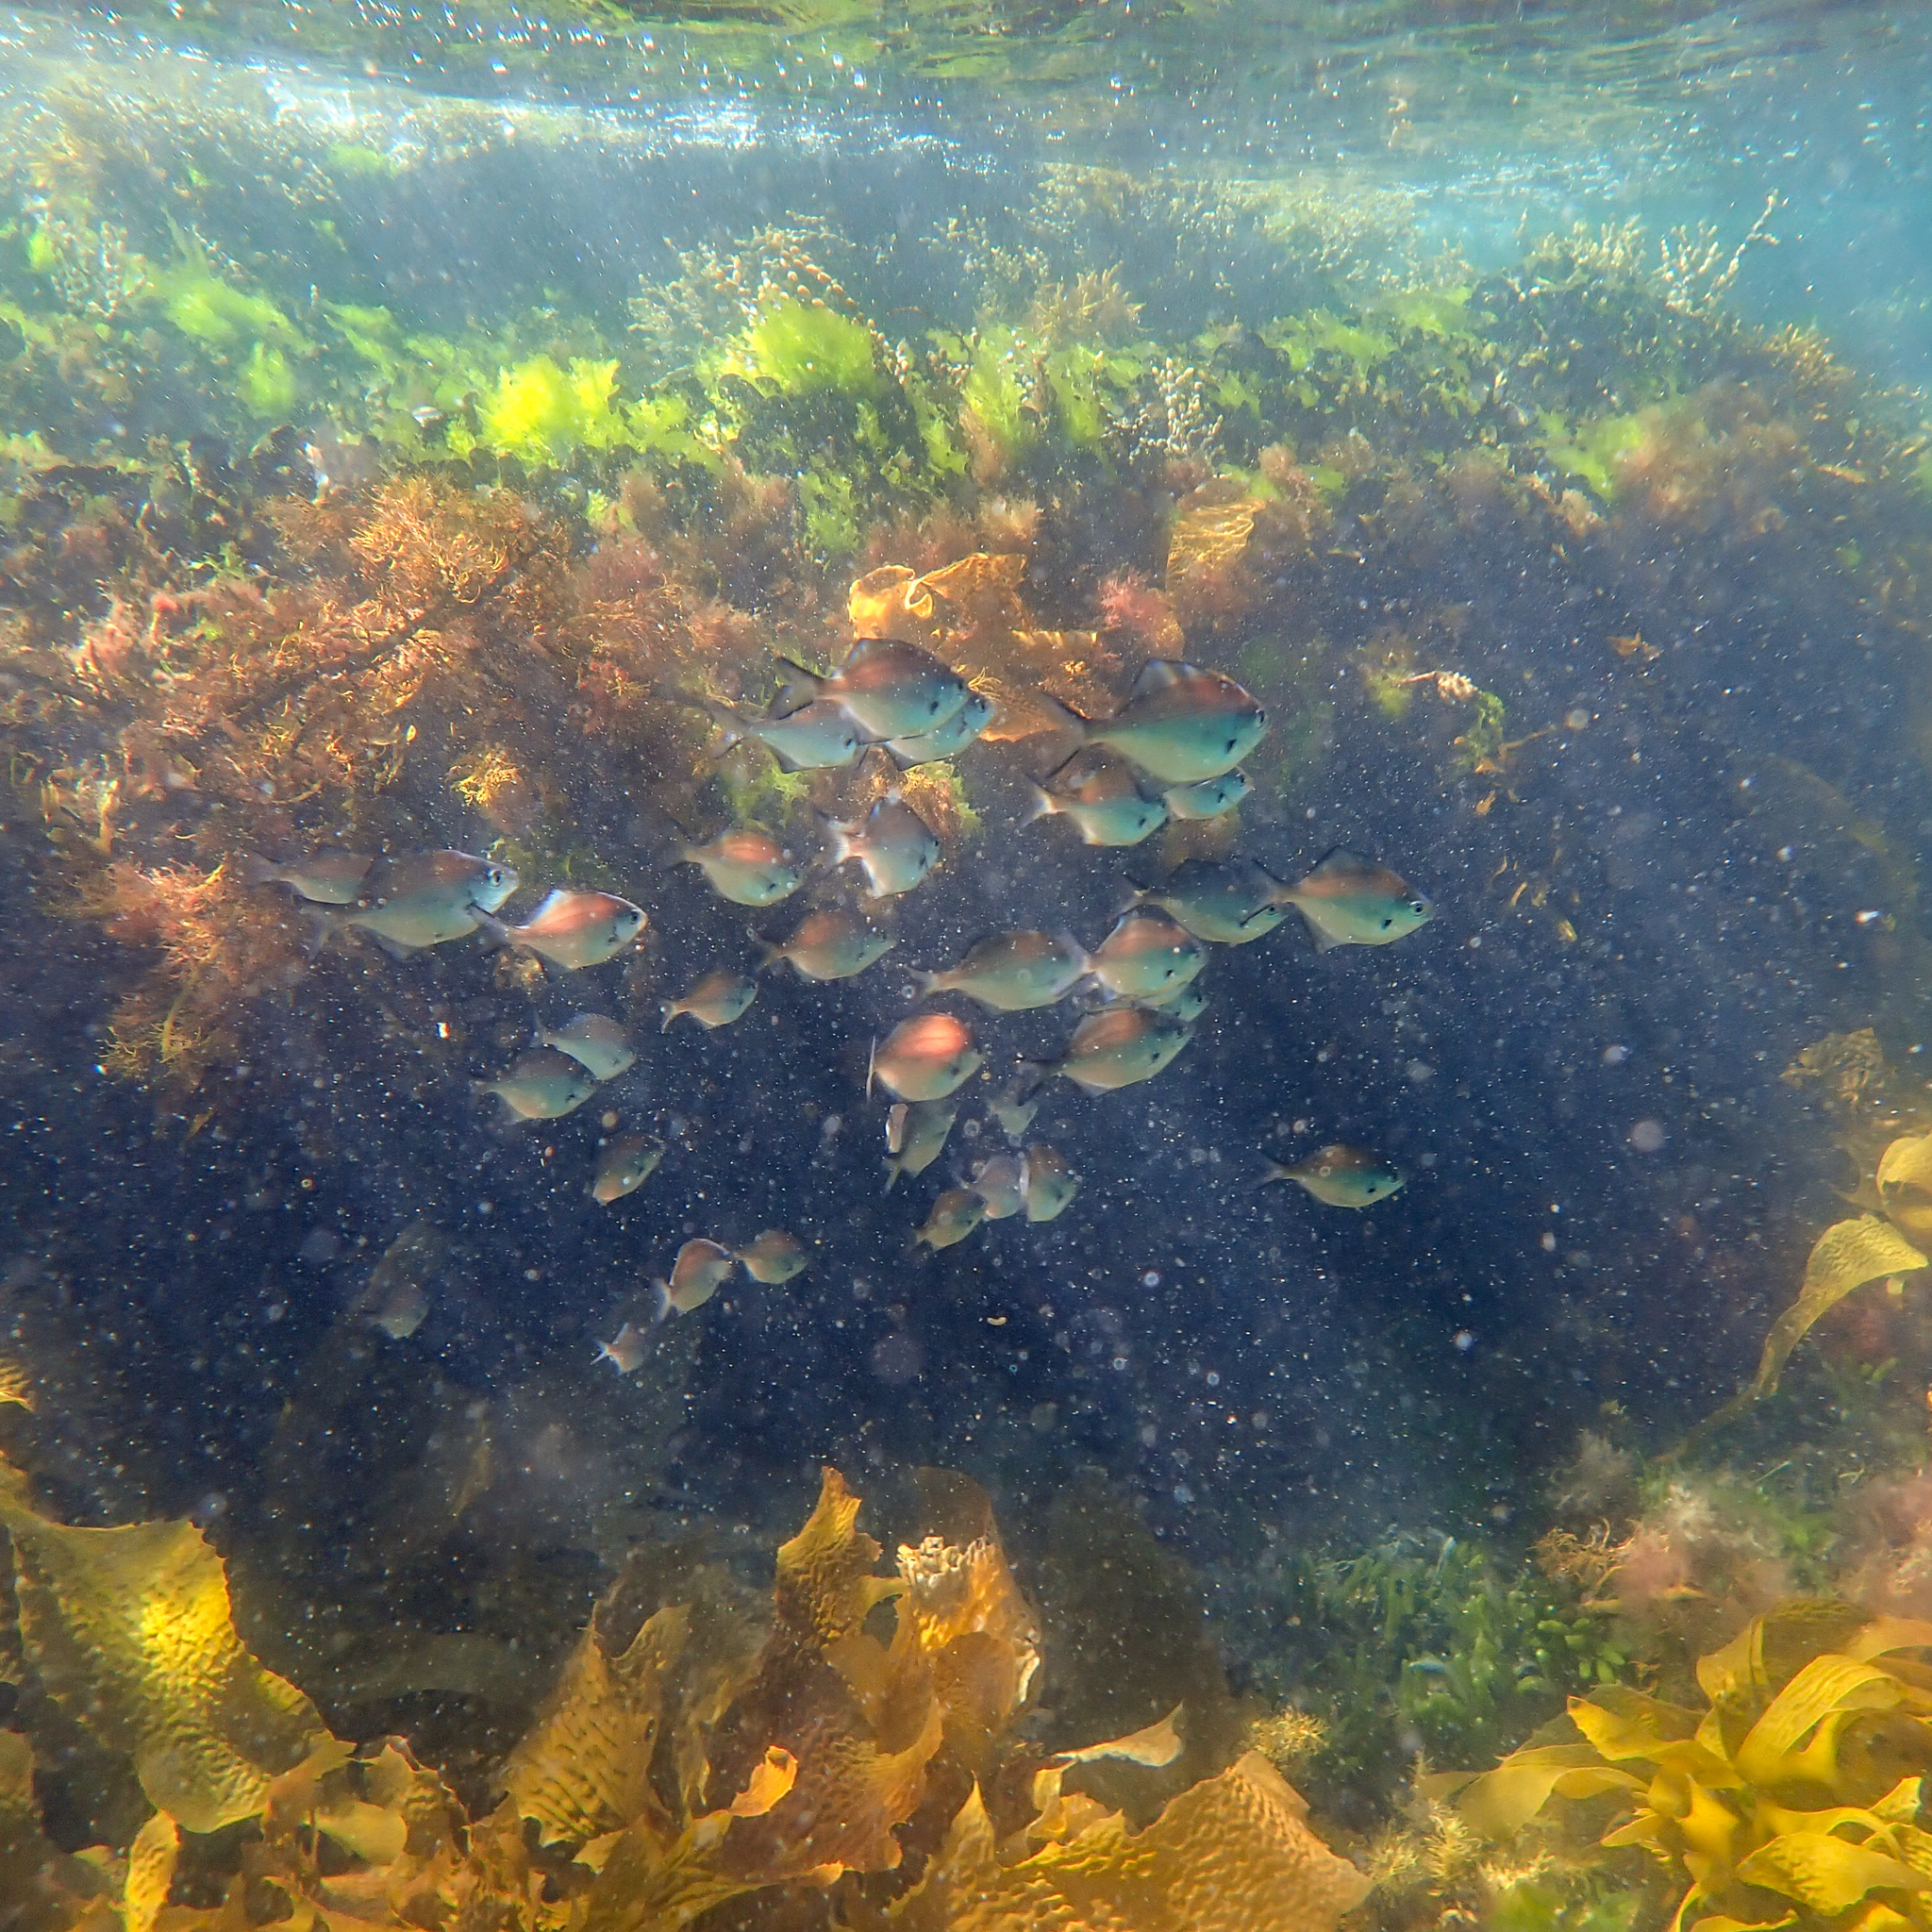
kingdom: Animalia
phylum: Chordata
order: Perciformes
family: Kyphosidae
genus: Scorpis
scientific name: Scorpis lineolata
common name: Sweep
